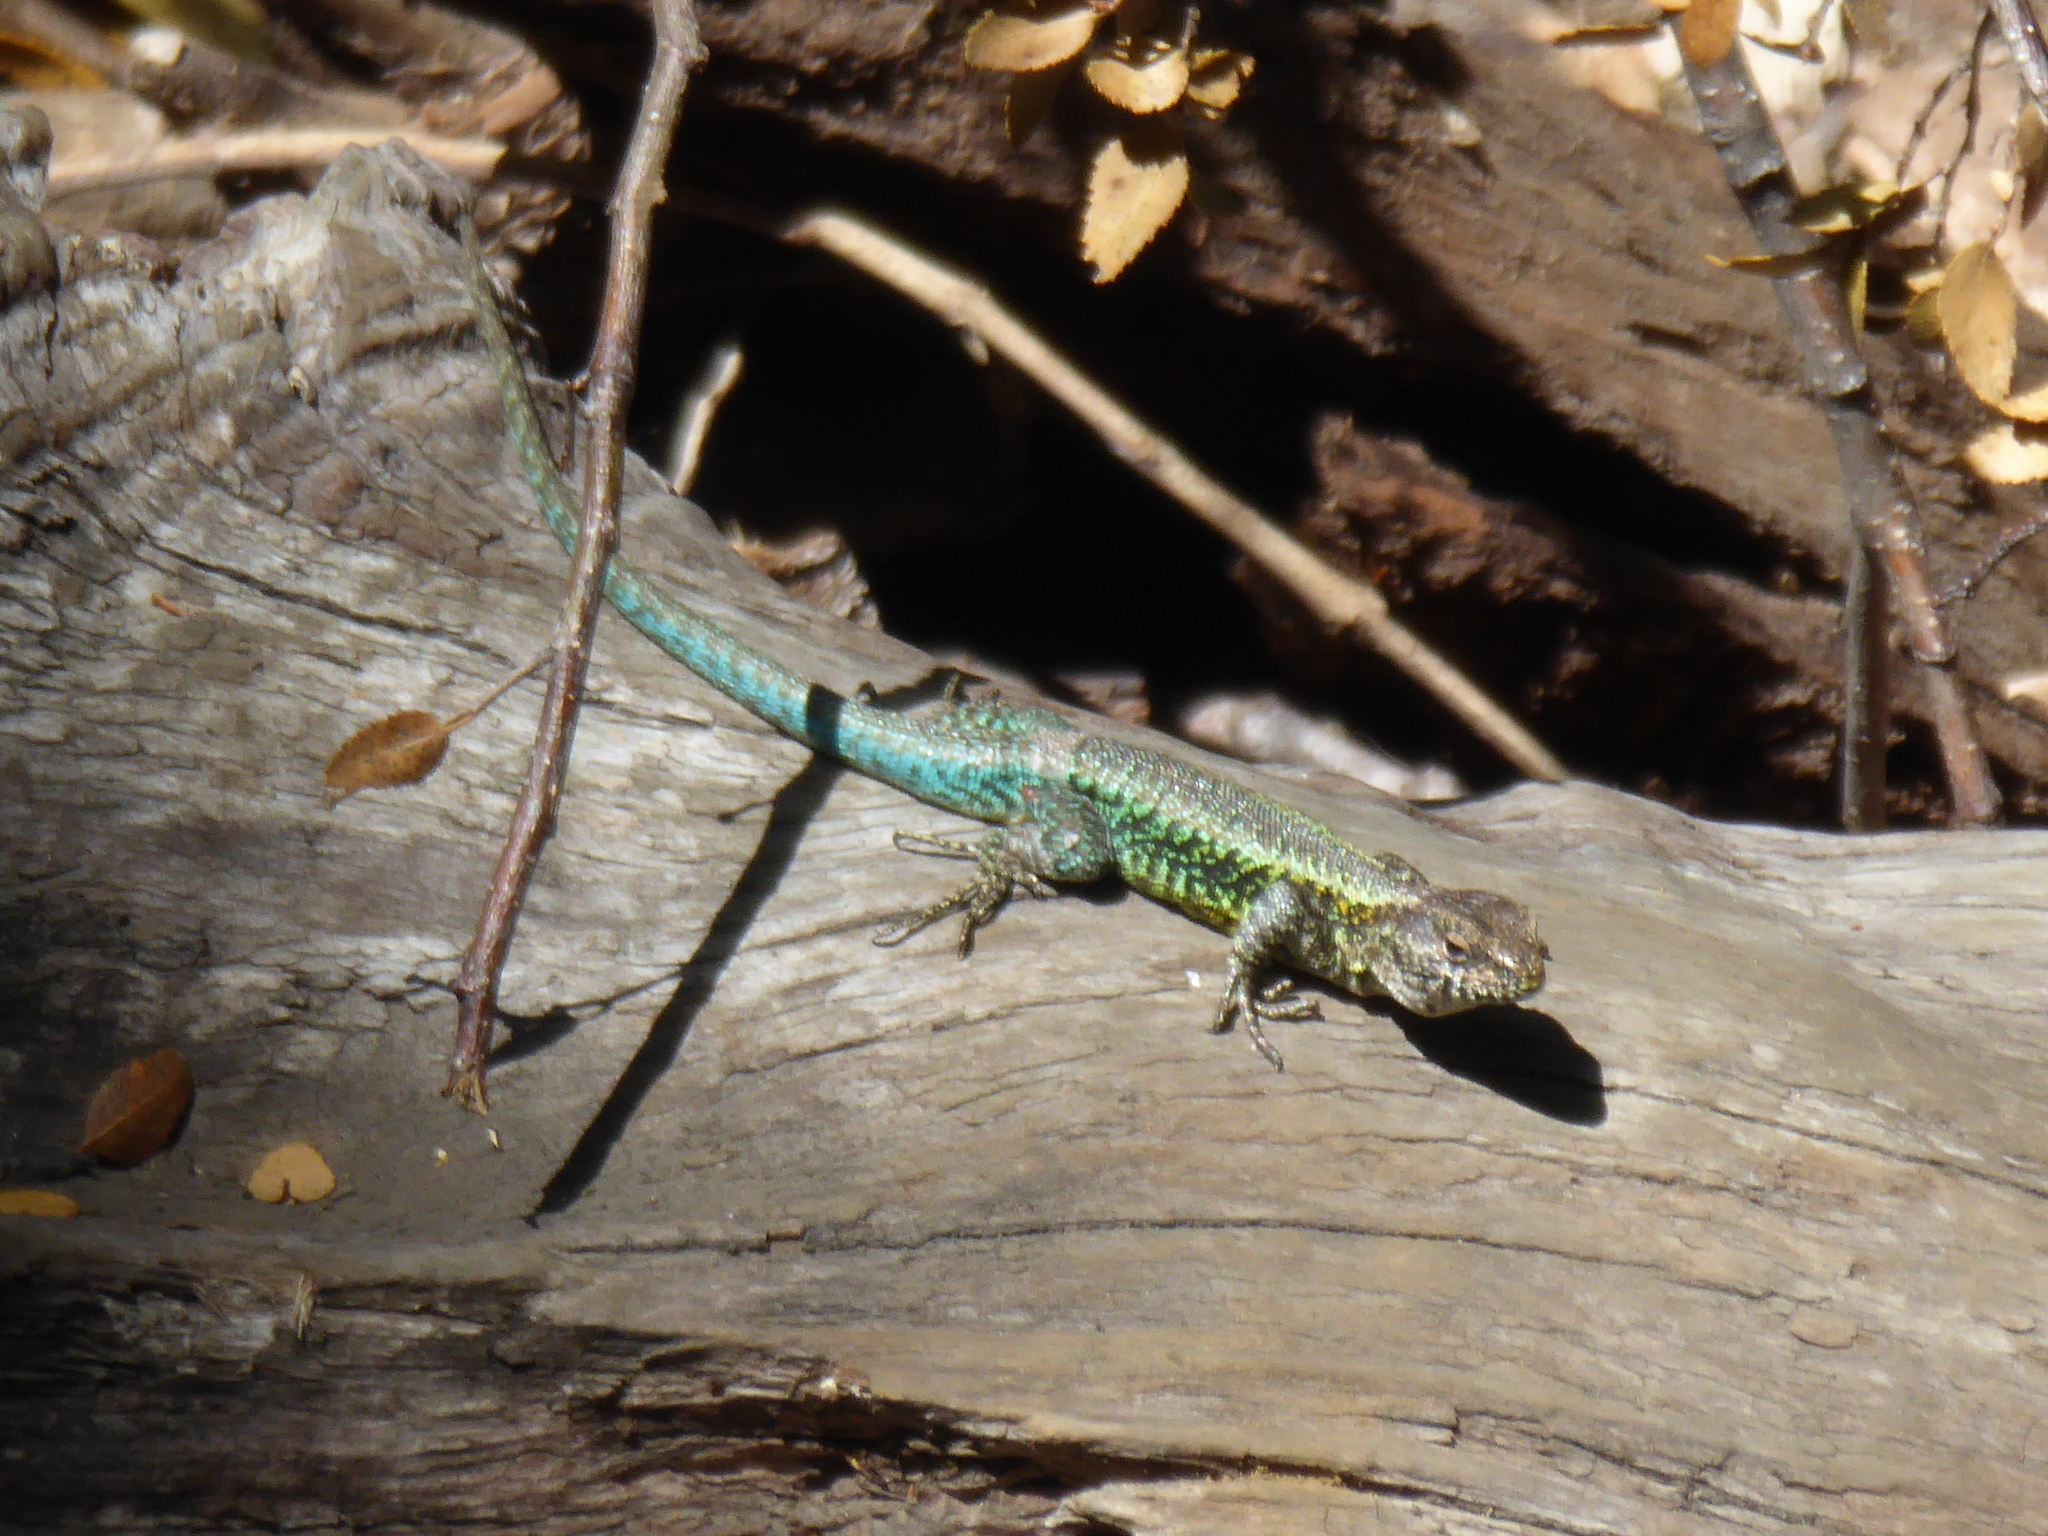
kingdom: Animalia
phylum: Chordata
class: Squamata
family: Liolaemidae
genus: Liolaemus
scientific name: Liolaemus pictus
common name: Painted tree iguana
